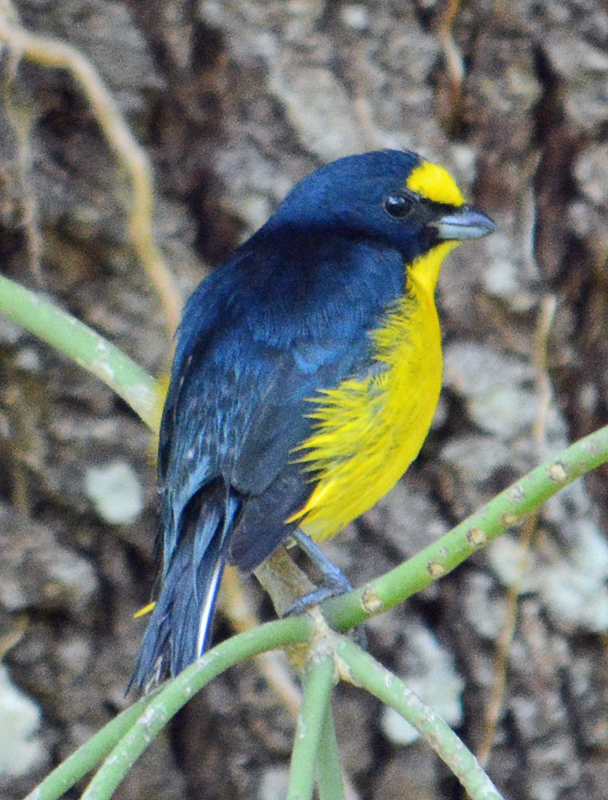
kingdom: Animalia
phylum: Chordata
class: Aves
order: Passeriformes
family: Fringillidae
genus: Euphonia
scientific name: Euphonia hirundinacea
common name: Yellow-throated euphonia
